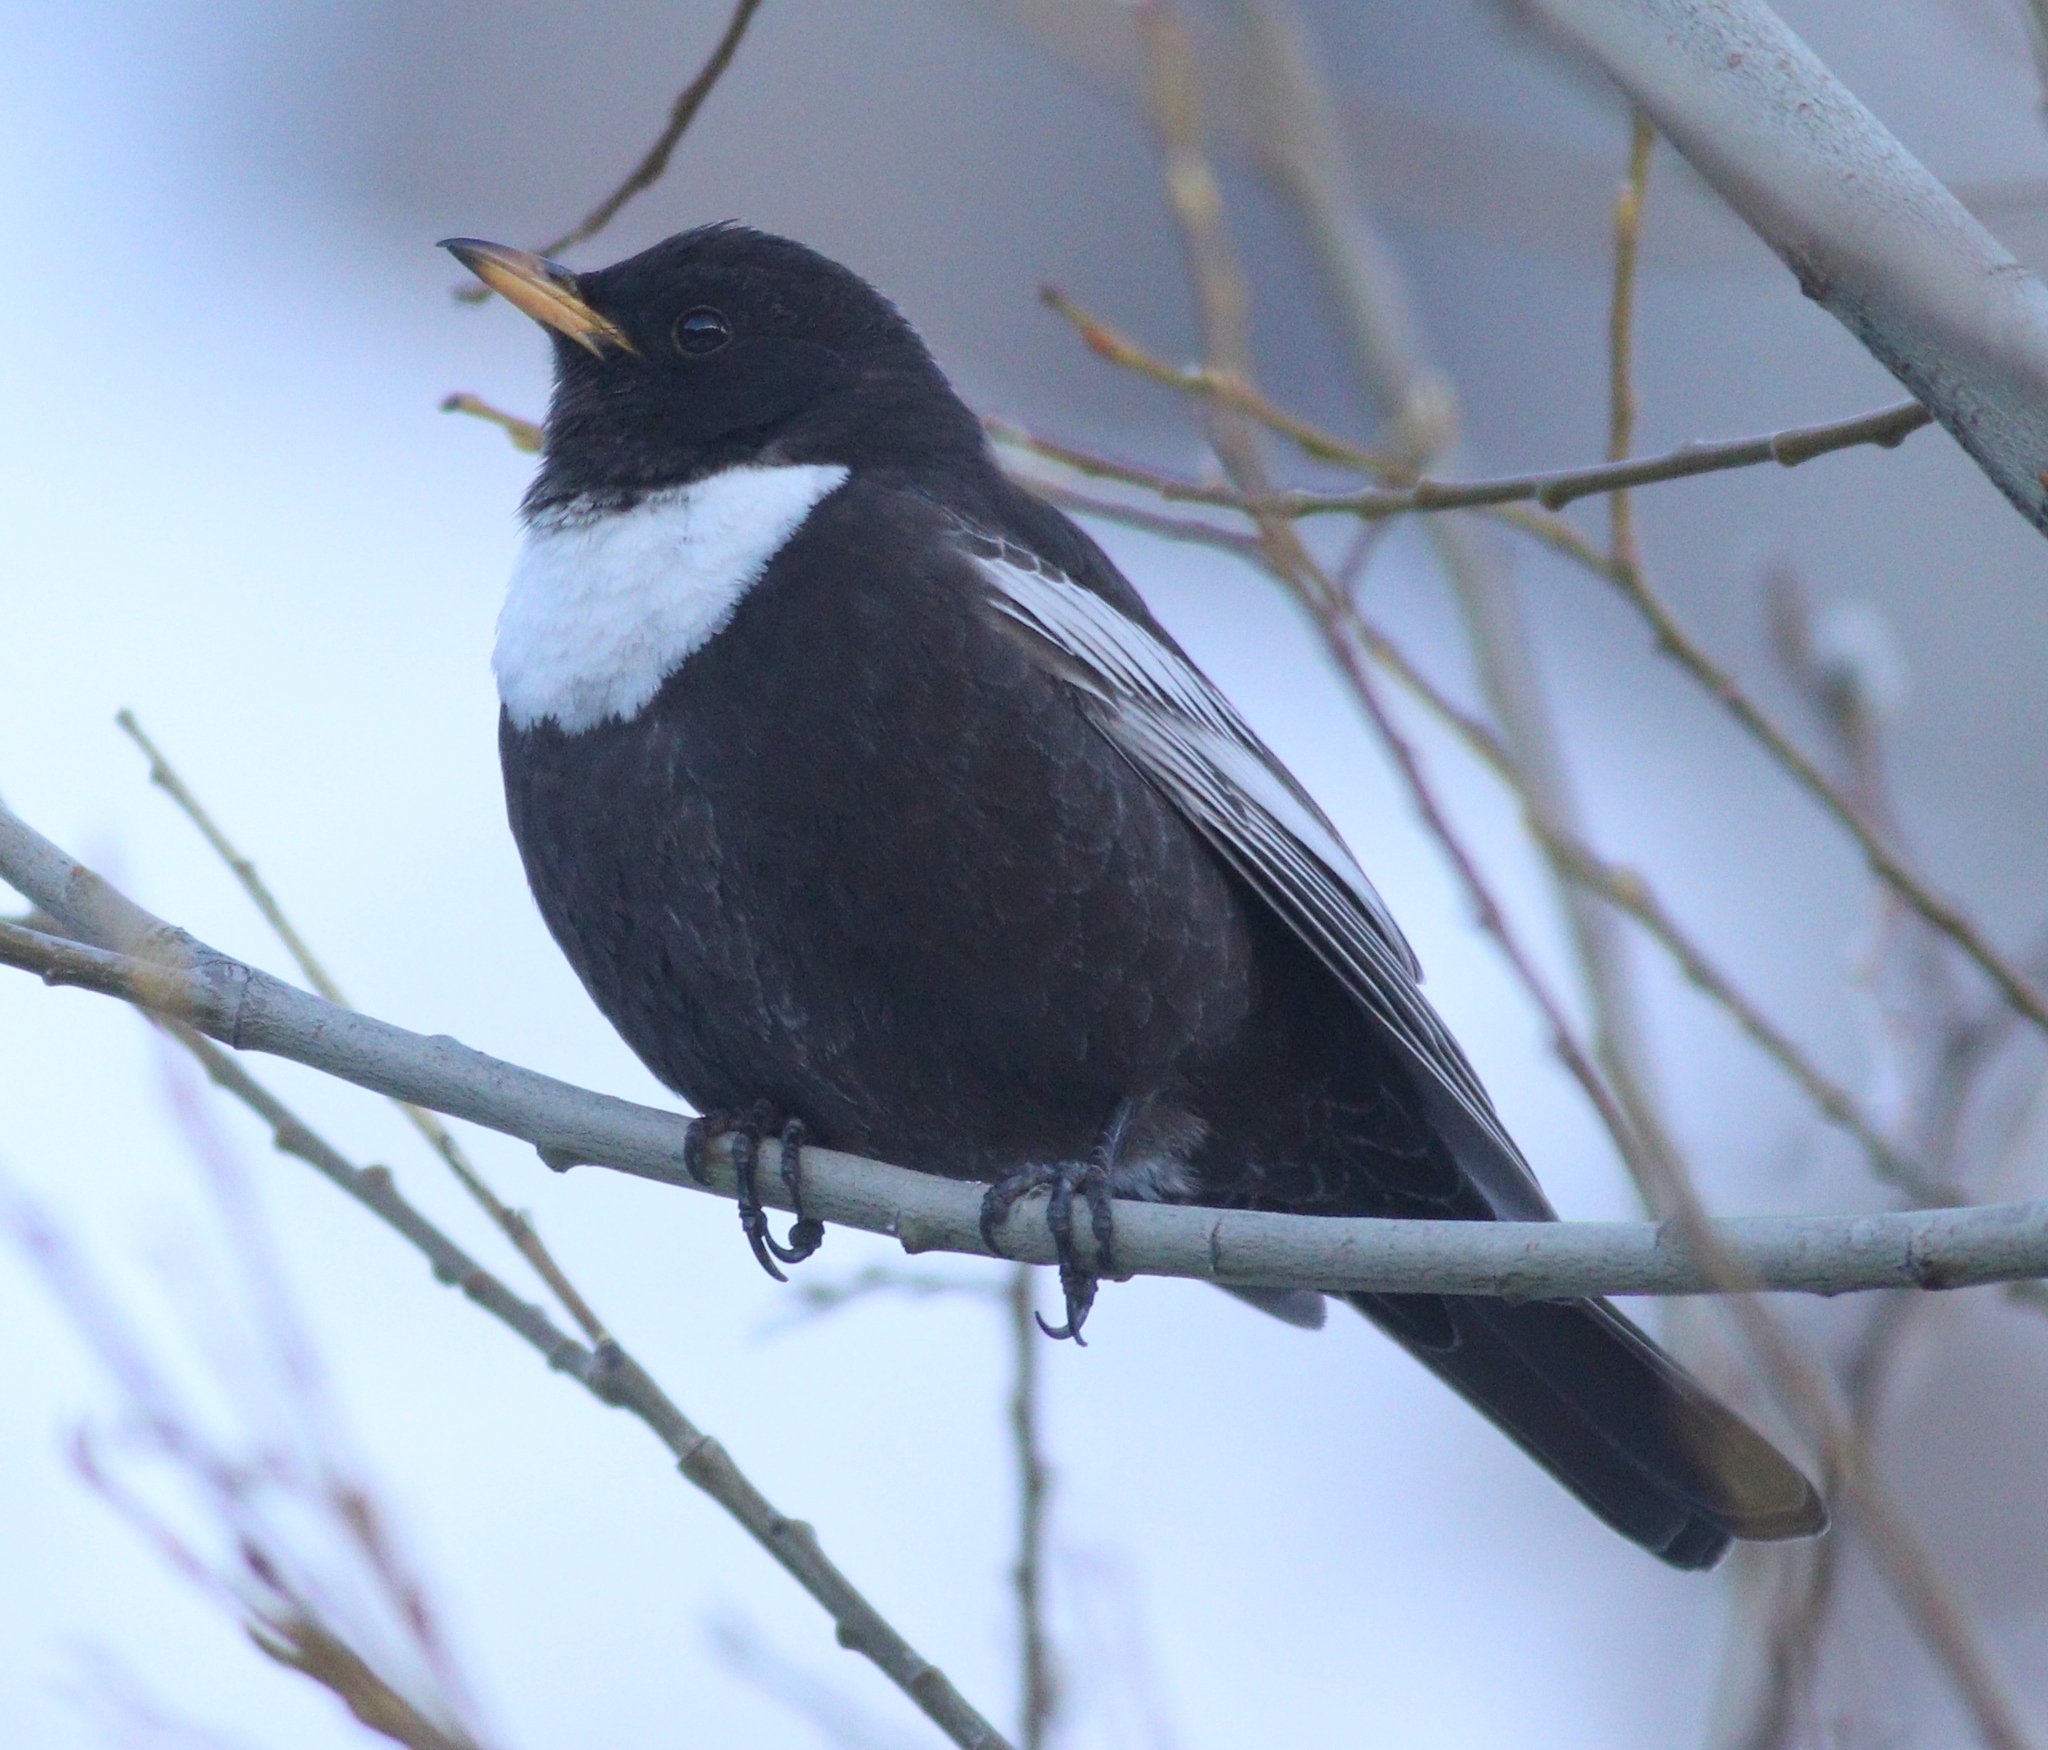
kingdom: Animalia
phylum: Chordata
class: Aves
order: Passeriformes
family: Turdidae
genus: Turdus
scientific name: Turdus torquatus
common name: Ring ouzel
